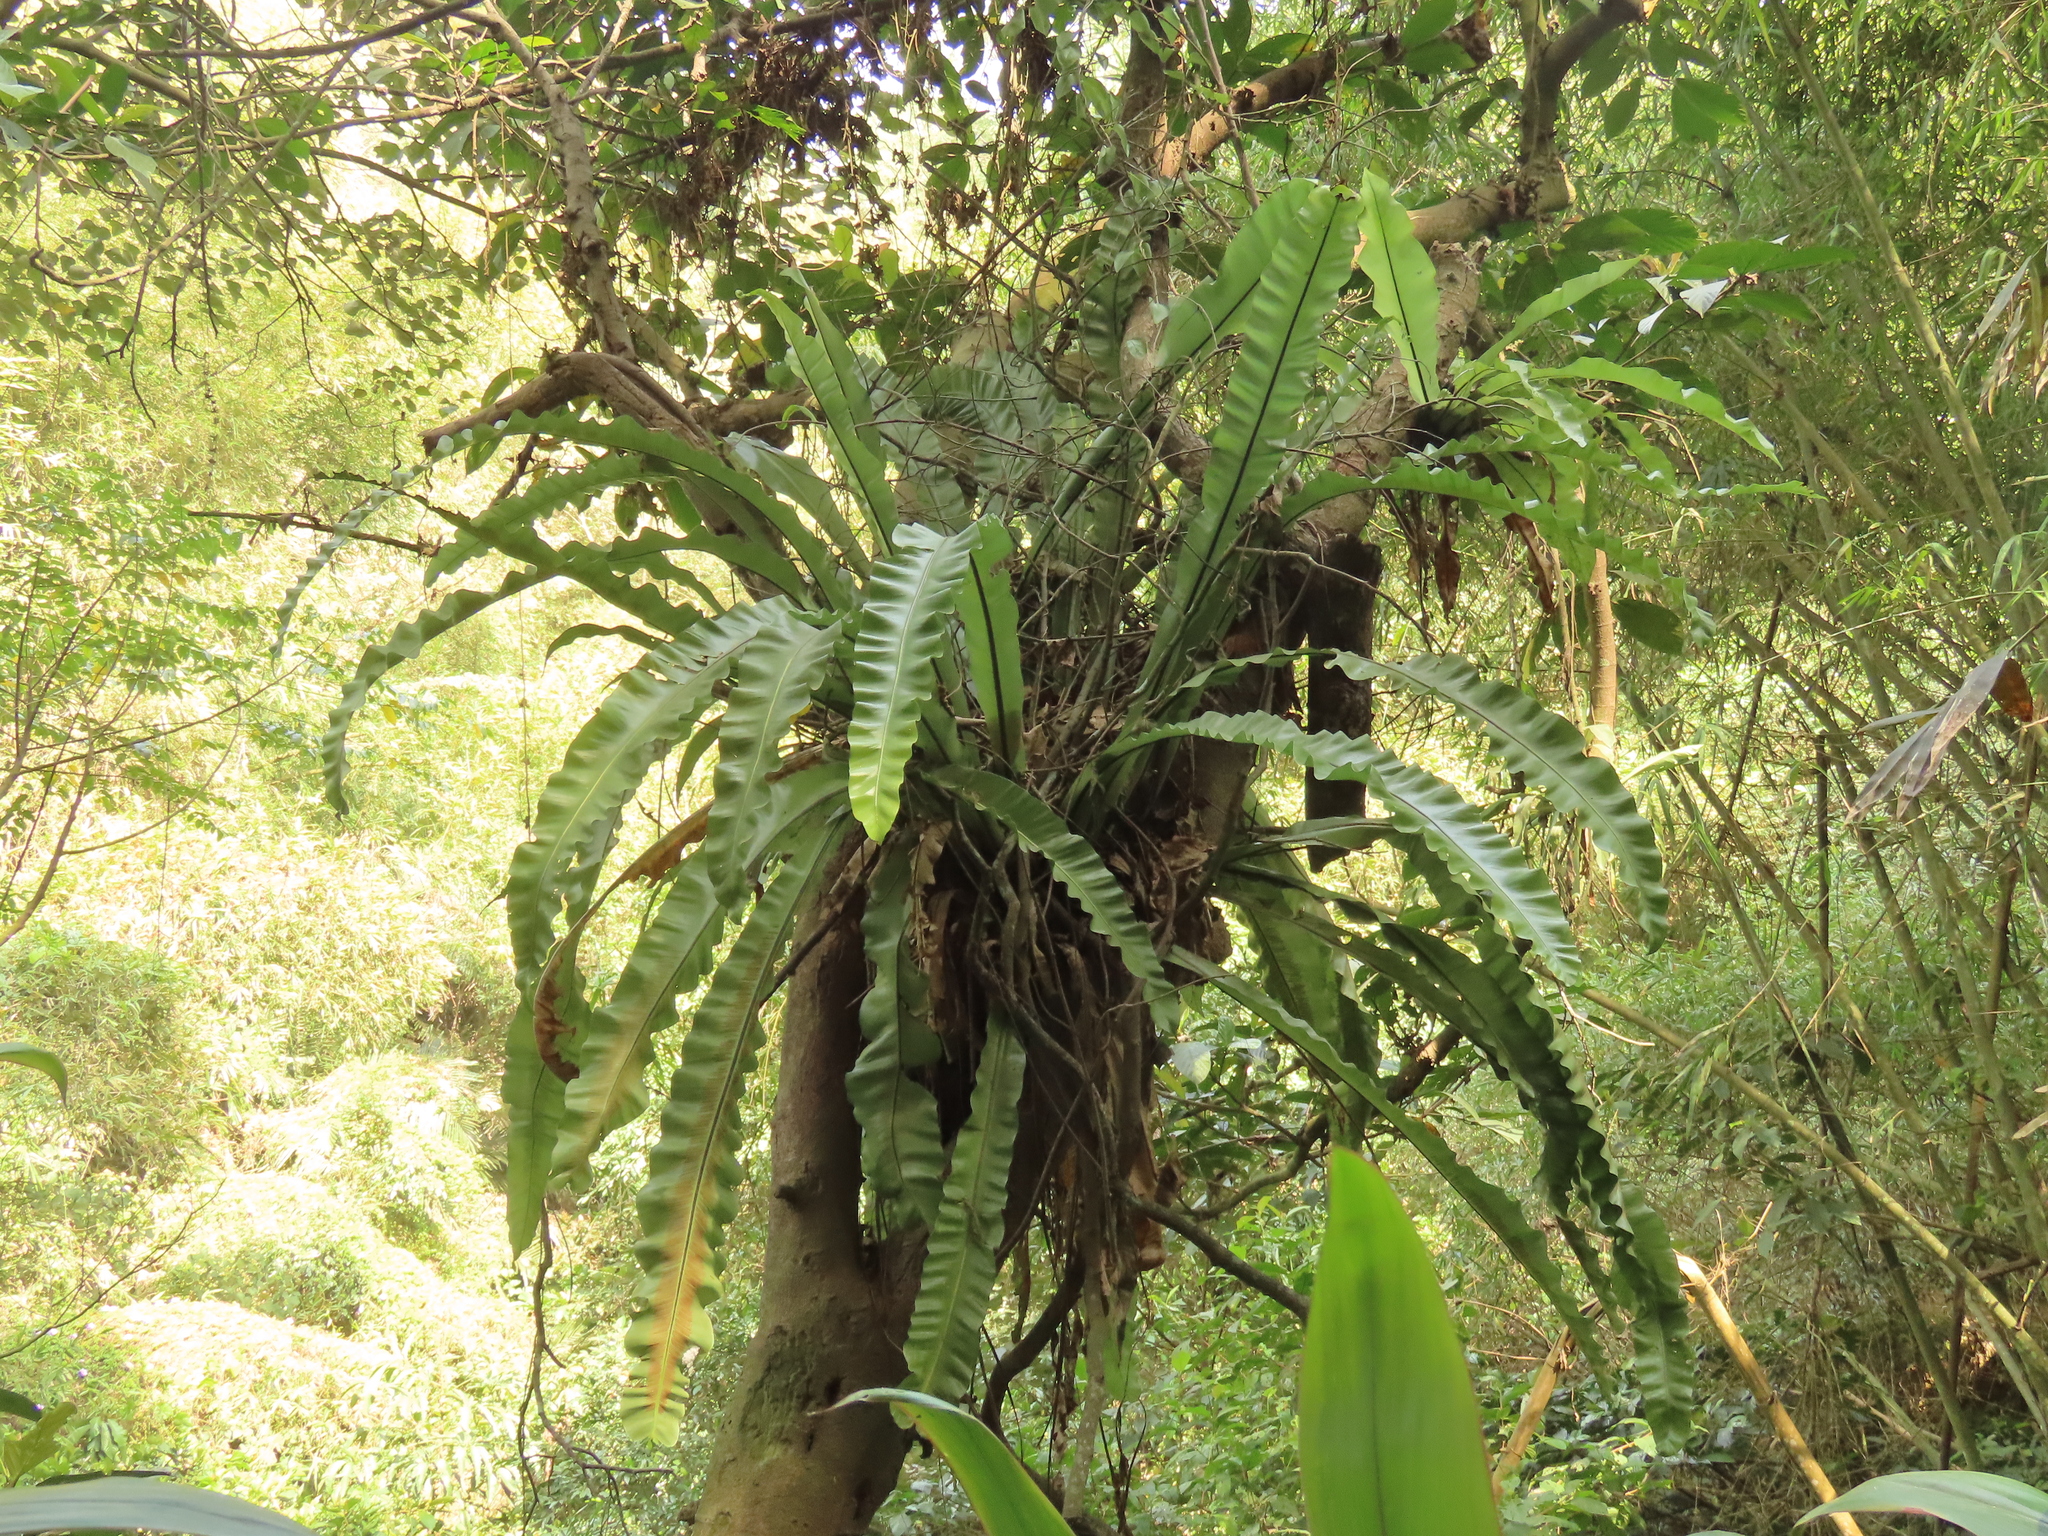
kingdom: Plantae
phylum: Tracheophyta
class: Polypodiopsida
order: Polypodiales
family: Aspleniaceae
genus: Asplenium
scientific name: Asplenium setoi
